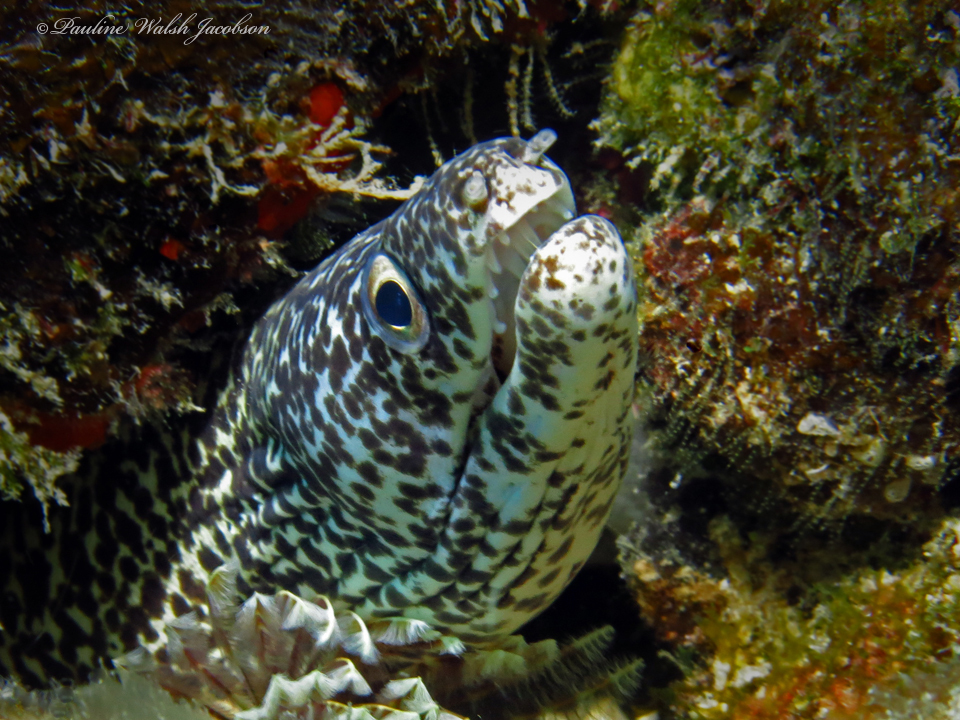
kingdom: Animalia
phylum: Chordata
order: Anguilliformes
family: Muraenidae
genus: Gymnothorax
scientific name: Gymnothorax moringa
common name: Spotted moray
